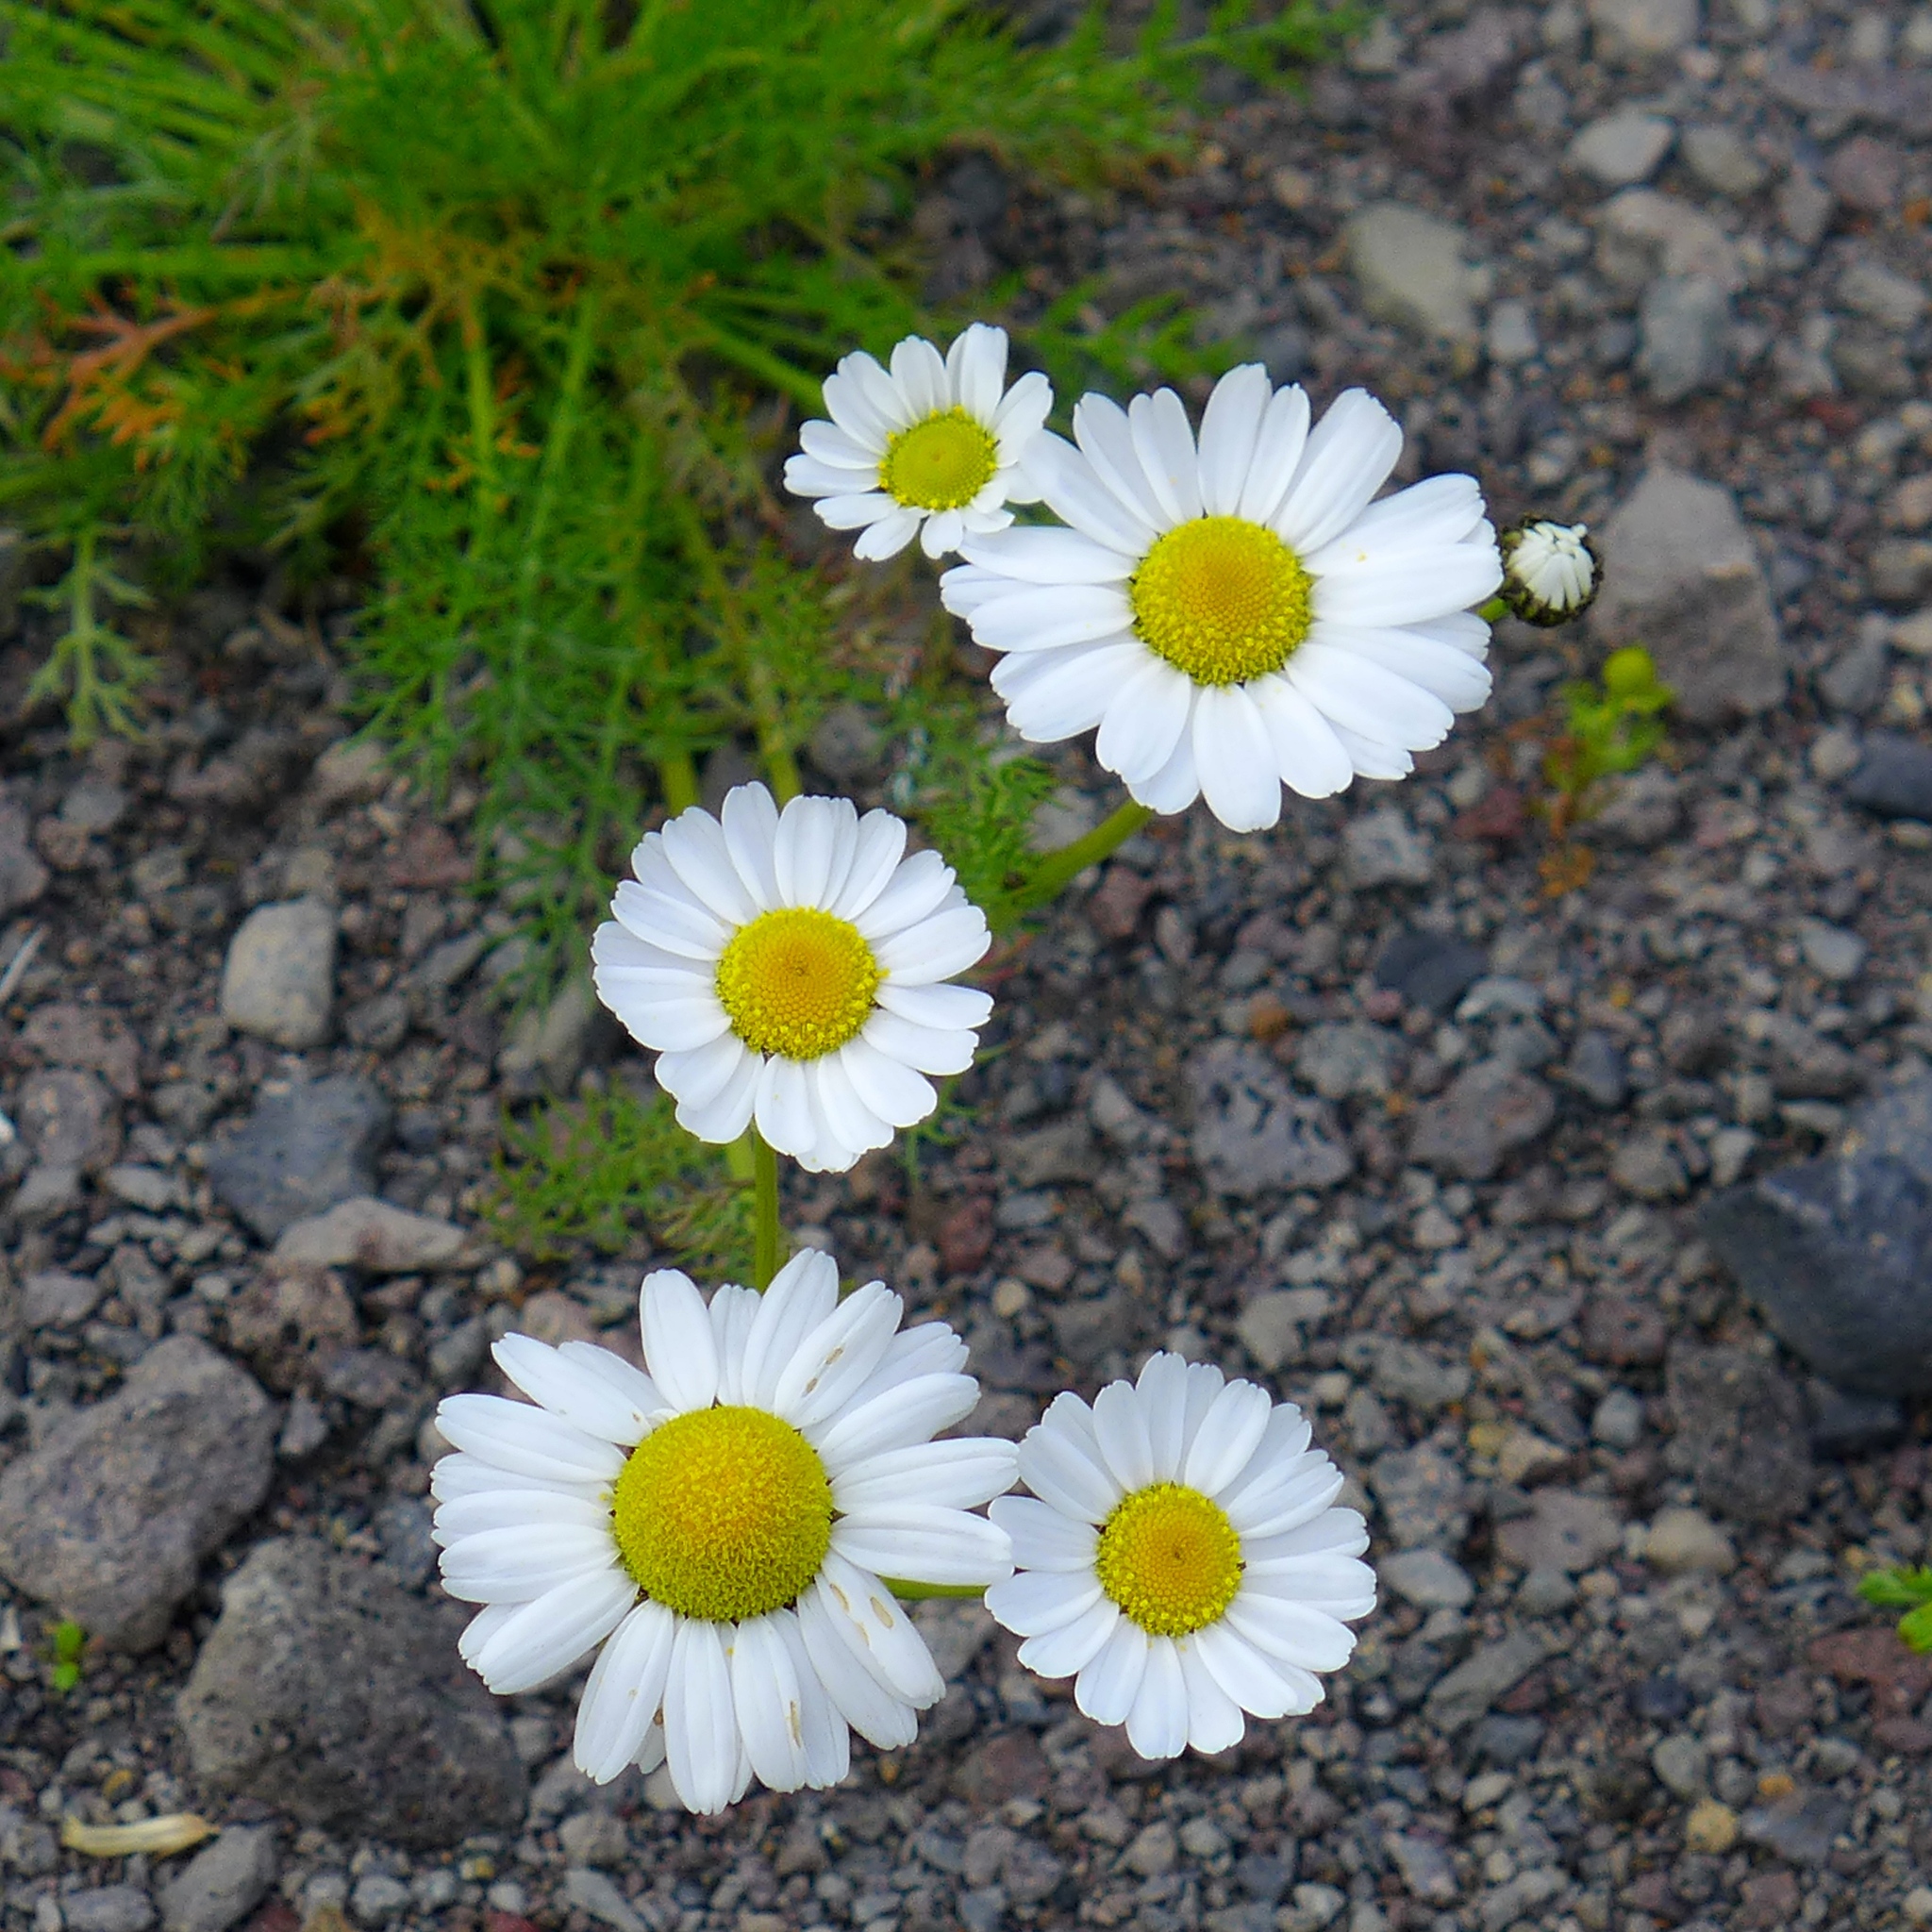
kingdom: Plantae
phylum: Tracheophyta
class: Magnoliopsida
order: Asterales
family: Asteraceae
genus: Tripleurospermum
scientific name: Tripleurospermum maritimum
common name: Sea mayweed
